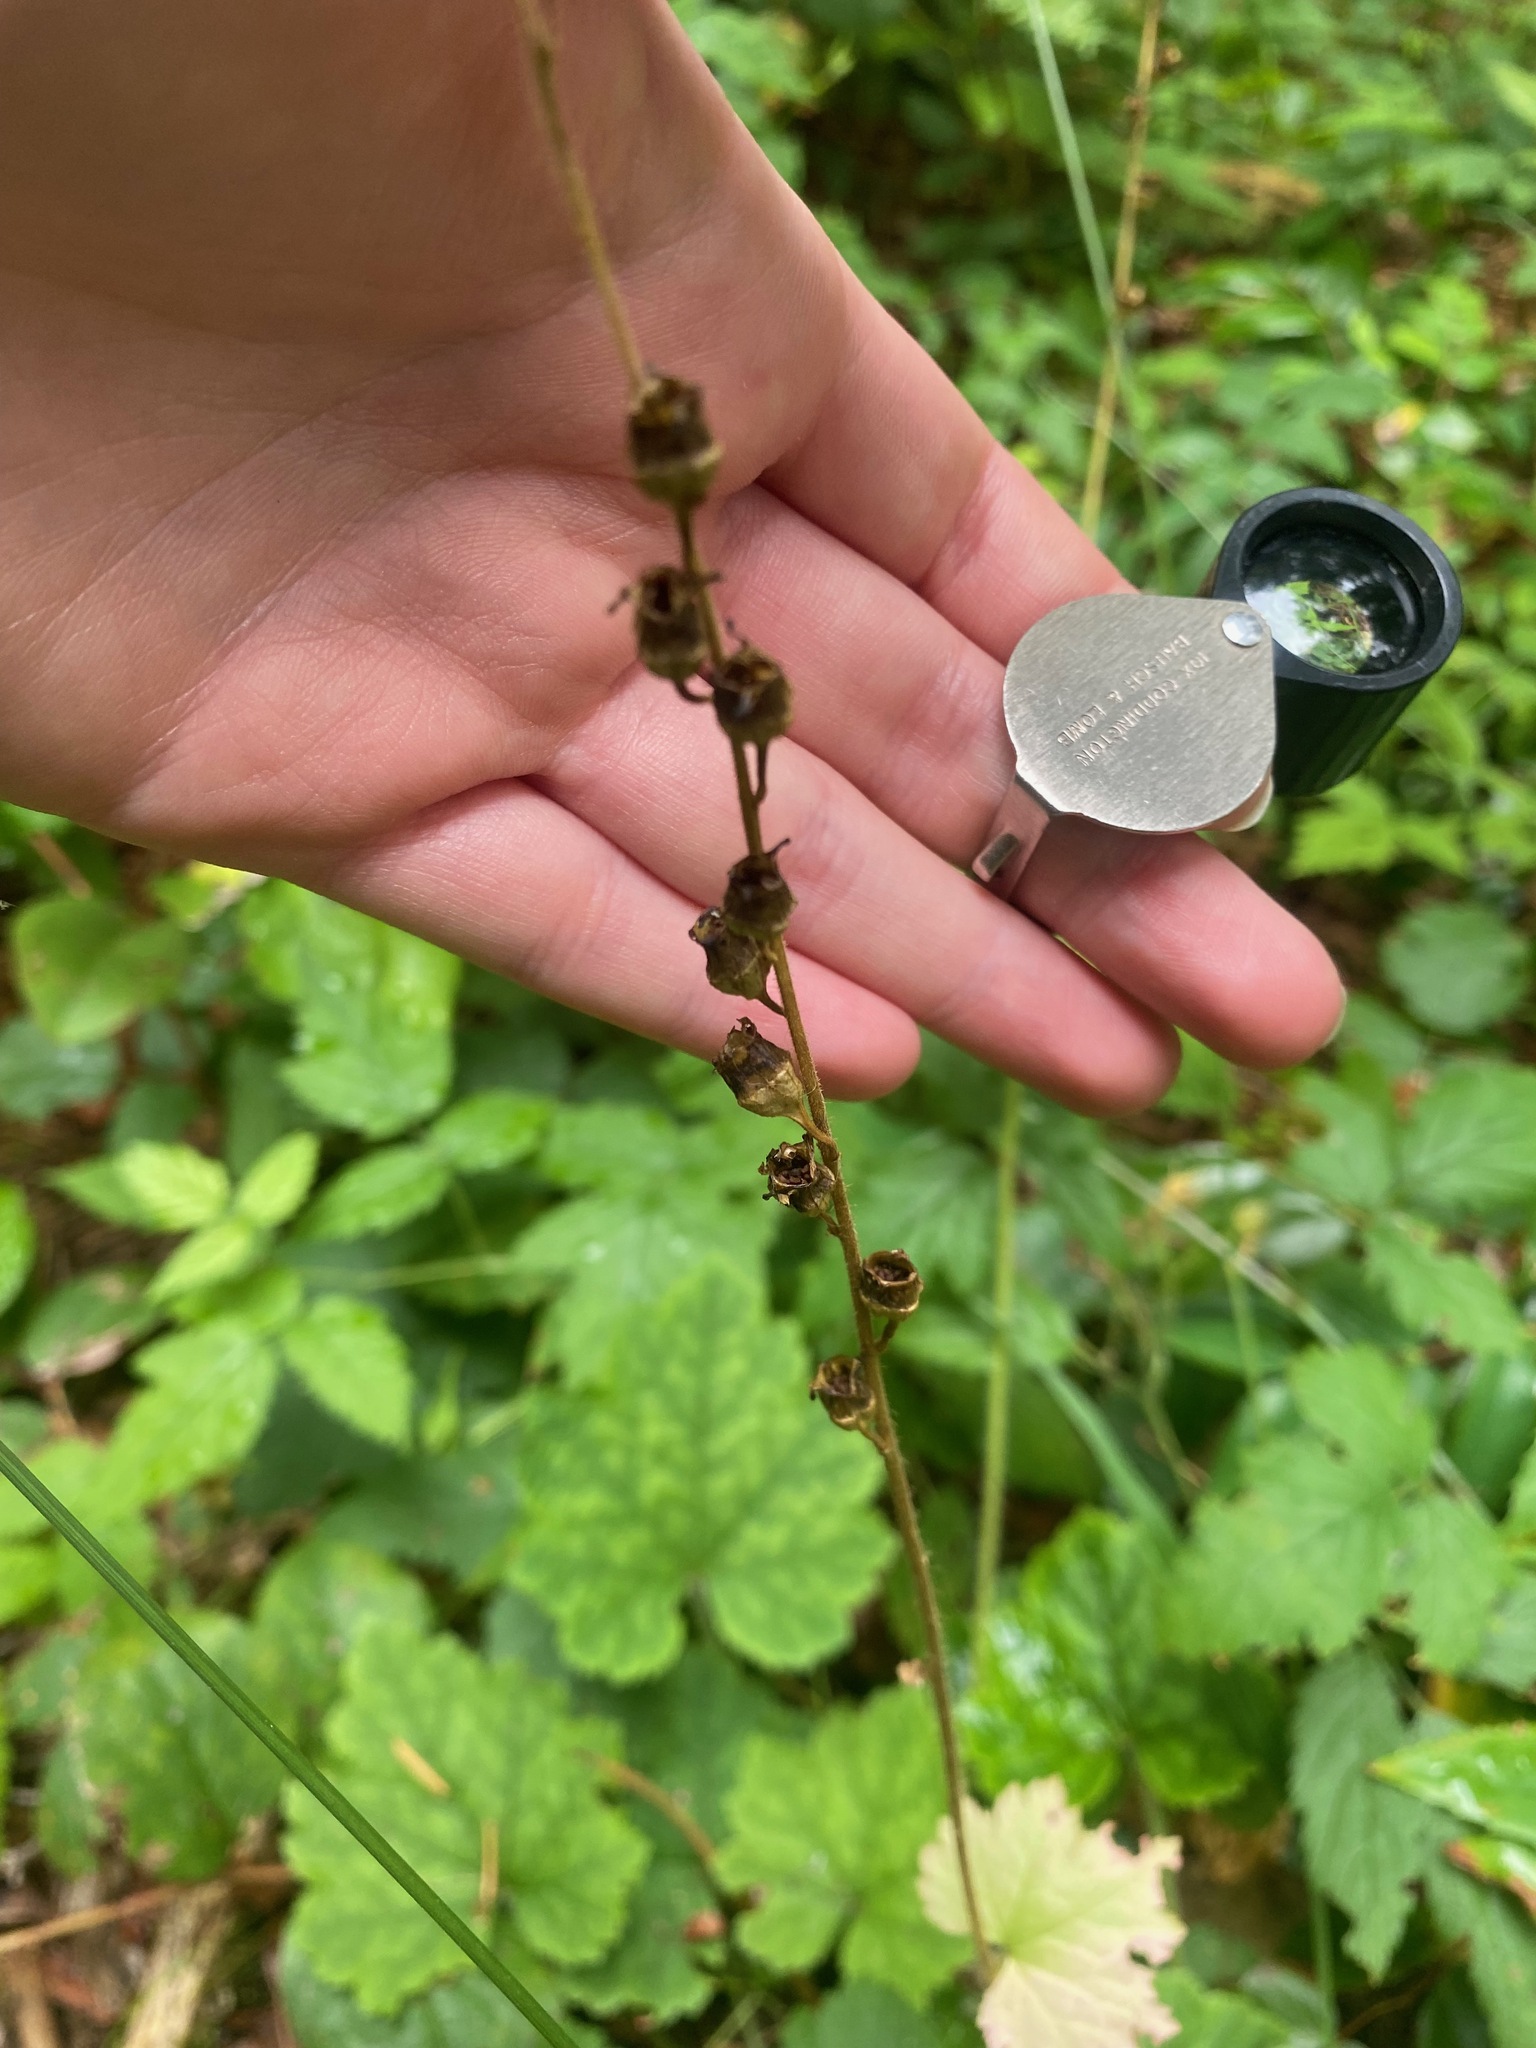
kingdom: Plantae
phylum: Tracheophyta
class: Magnoliopsida
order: Saxifragales
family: Saxifragaceae
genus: Tellima
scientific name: Tellima grandiflora
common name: Fringecups
